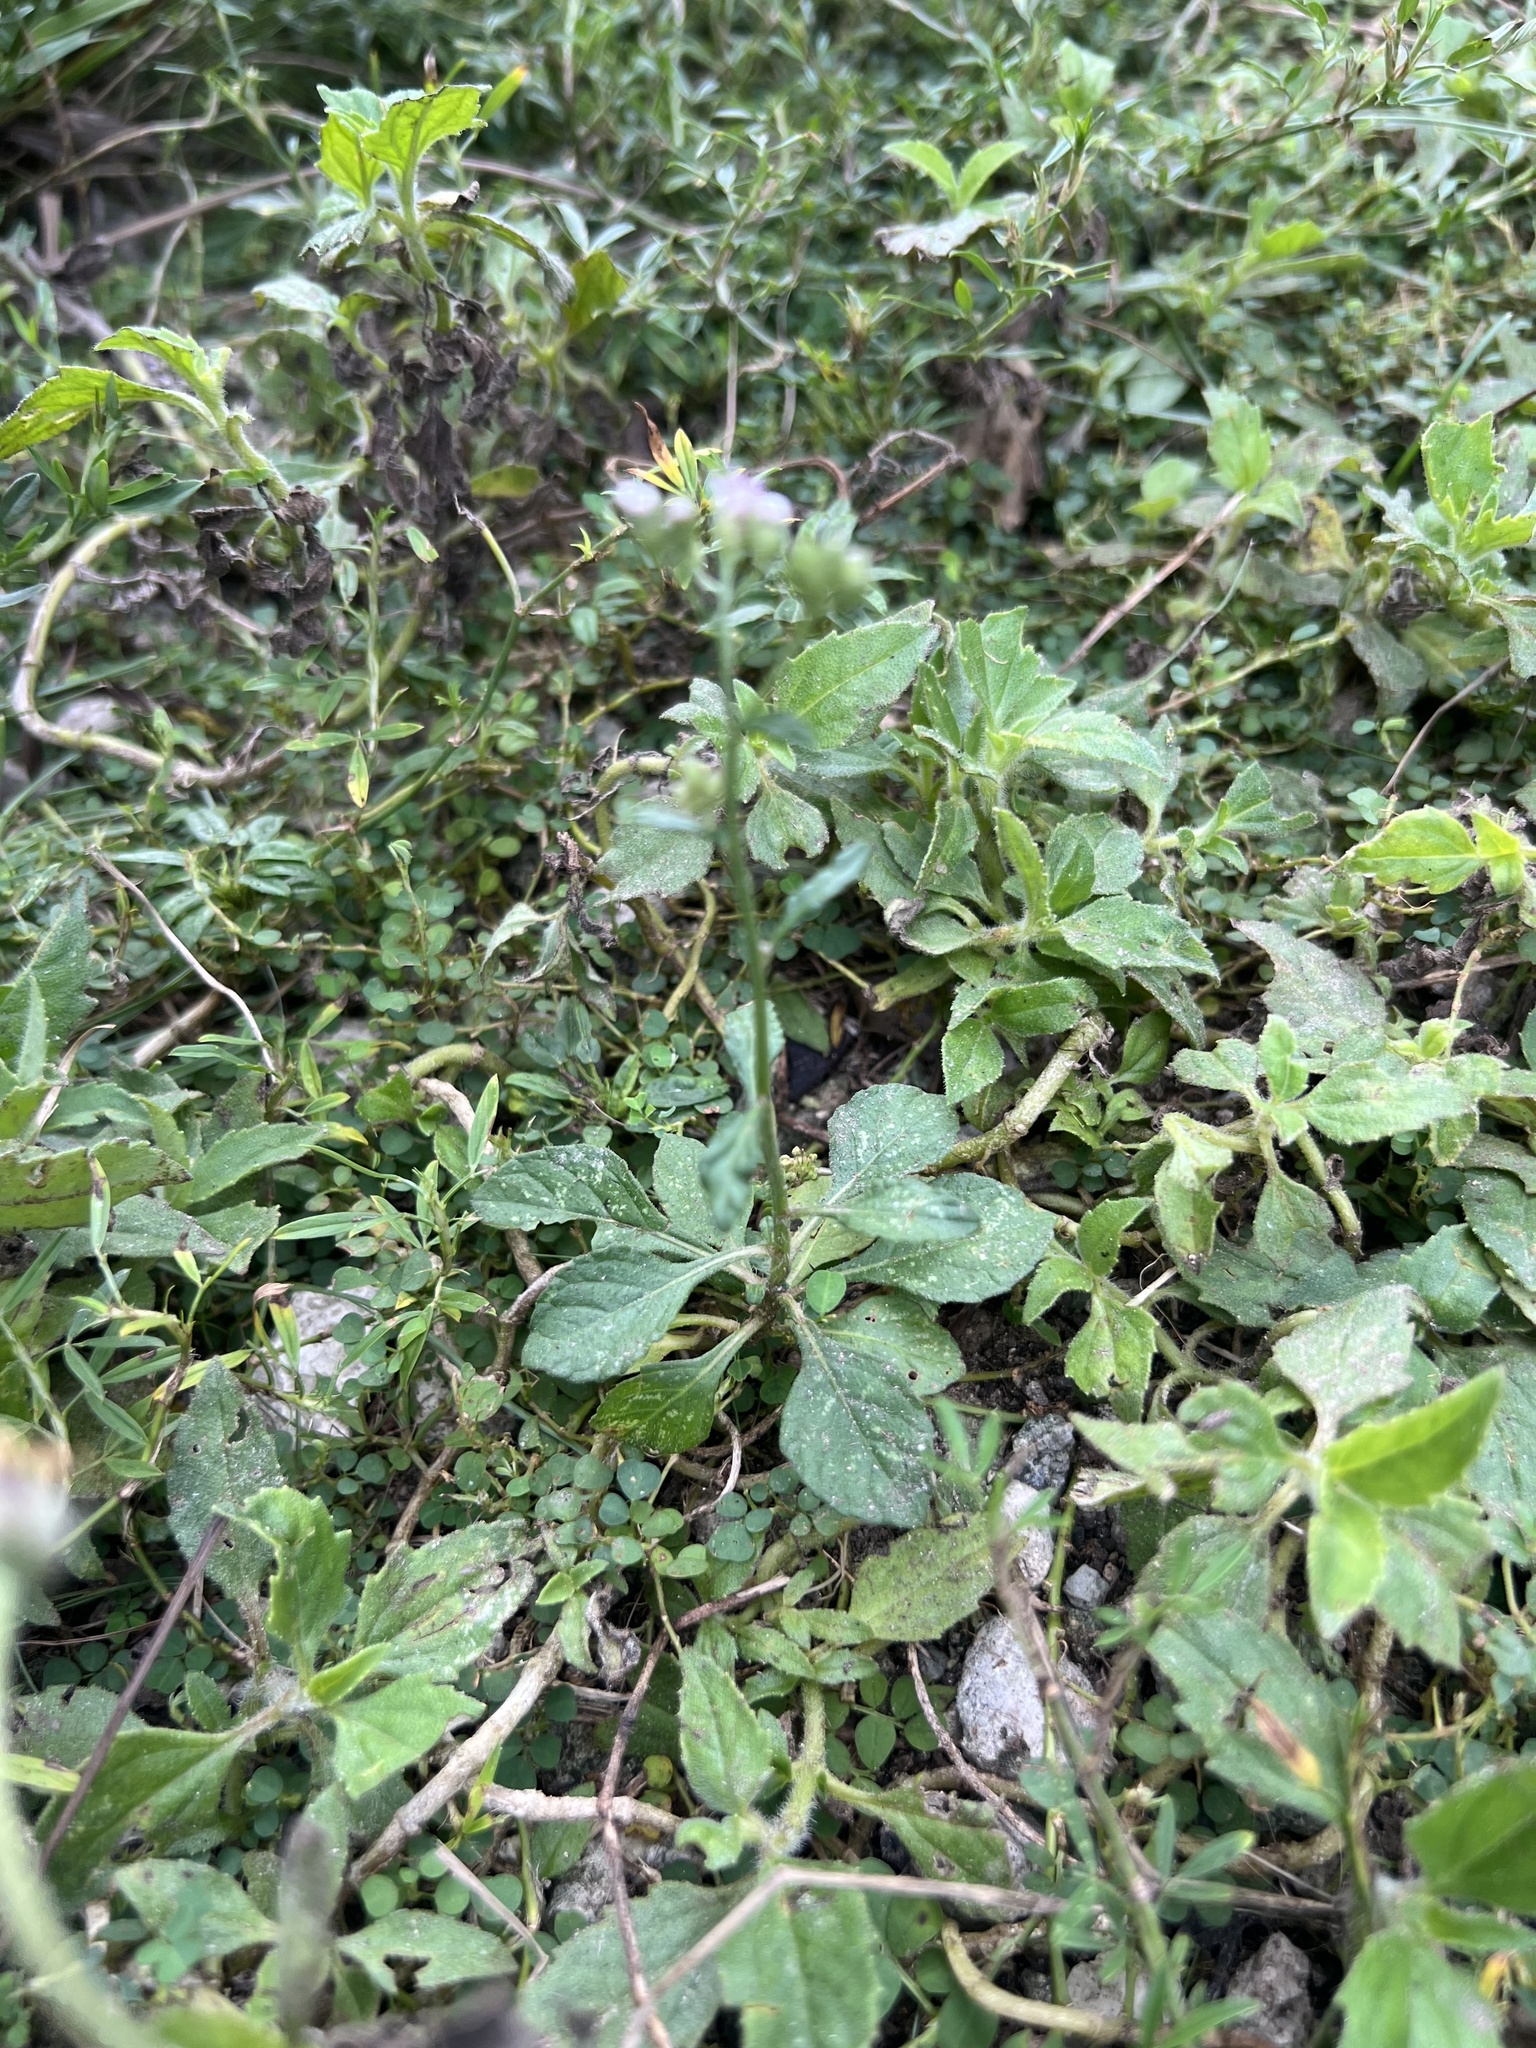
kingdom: Plantae
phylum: Tracheophyta
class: Magnoliopsida
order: Asterales
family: Asteraceae
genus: Cyanthillium
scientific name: Cyanthillium cinereum
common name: Little ironweed
